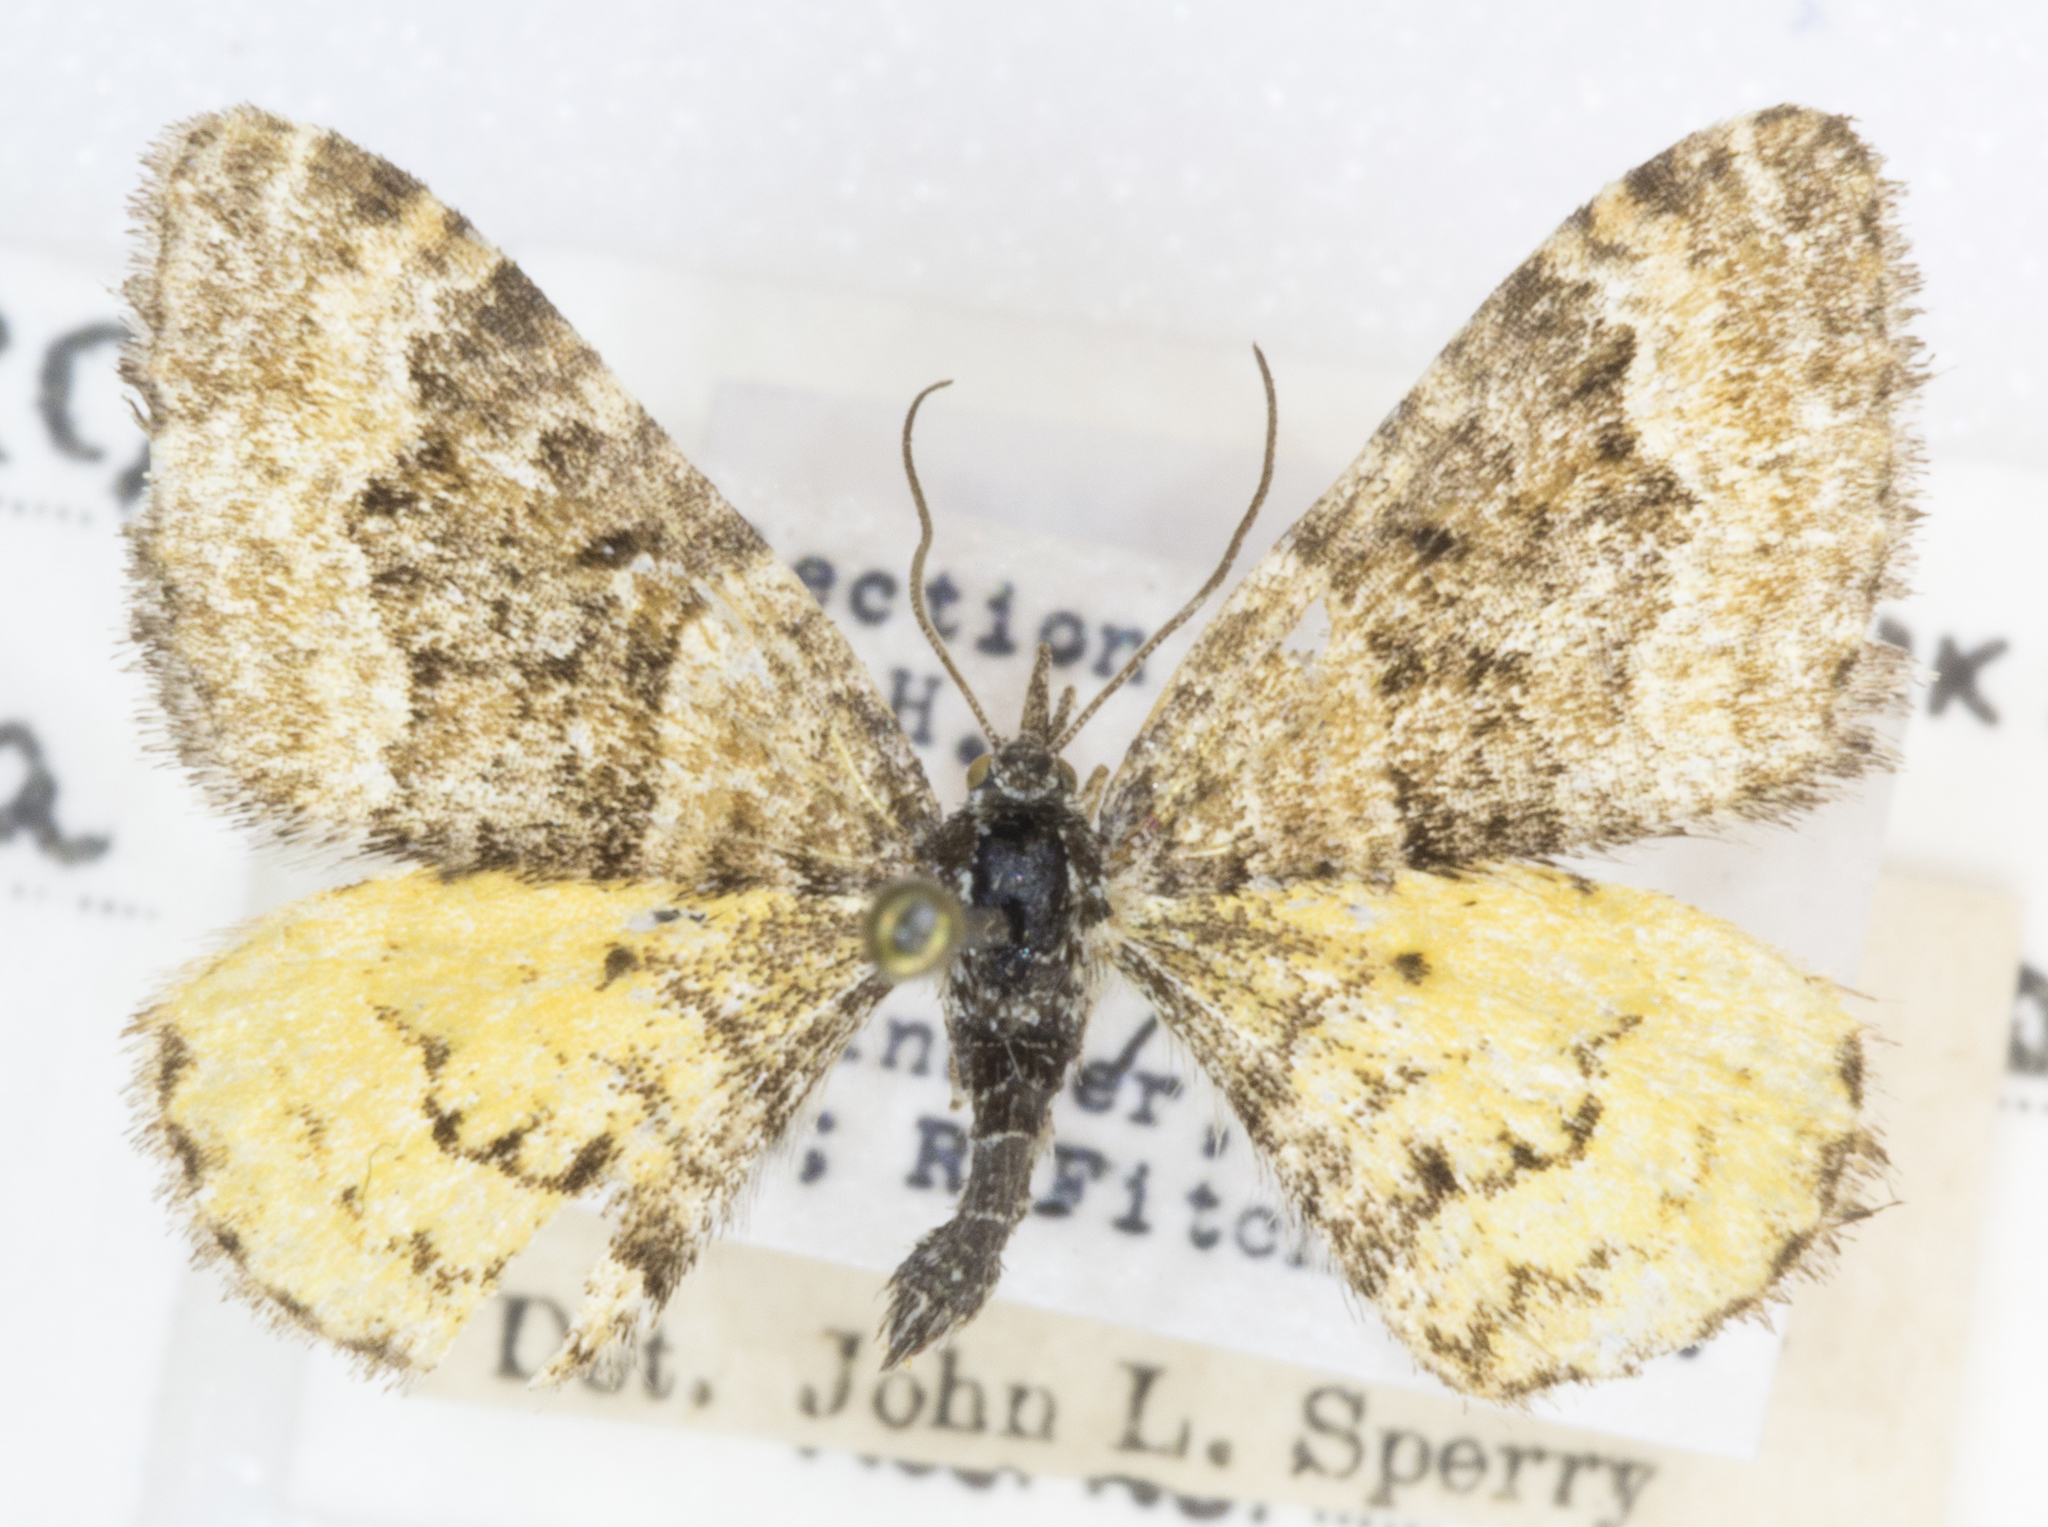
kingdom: Animalia
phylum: Arthropoda
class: Insecta
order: Lepidoptera
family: Geometridae
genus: Epirrhoe
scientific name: Epirrhoe plebeculata
